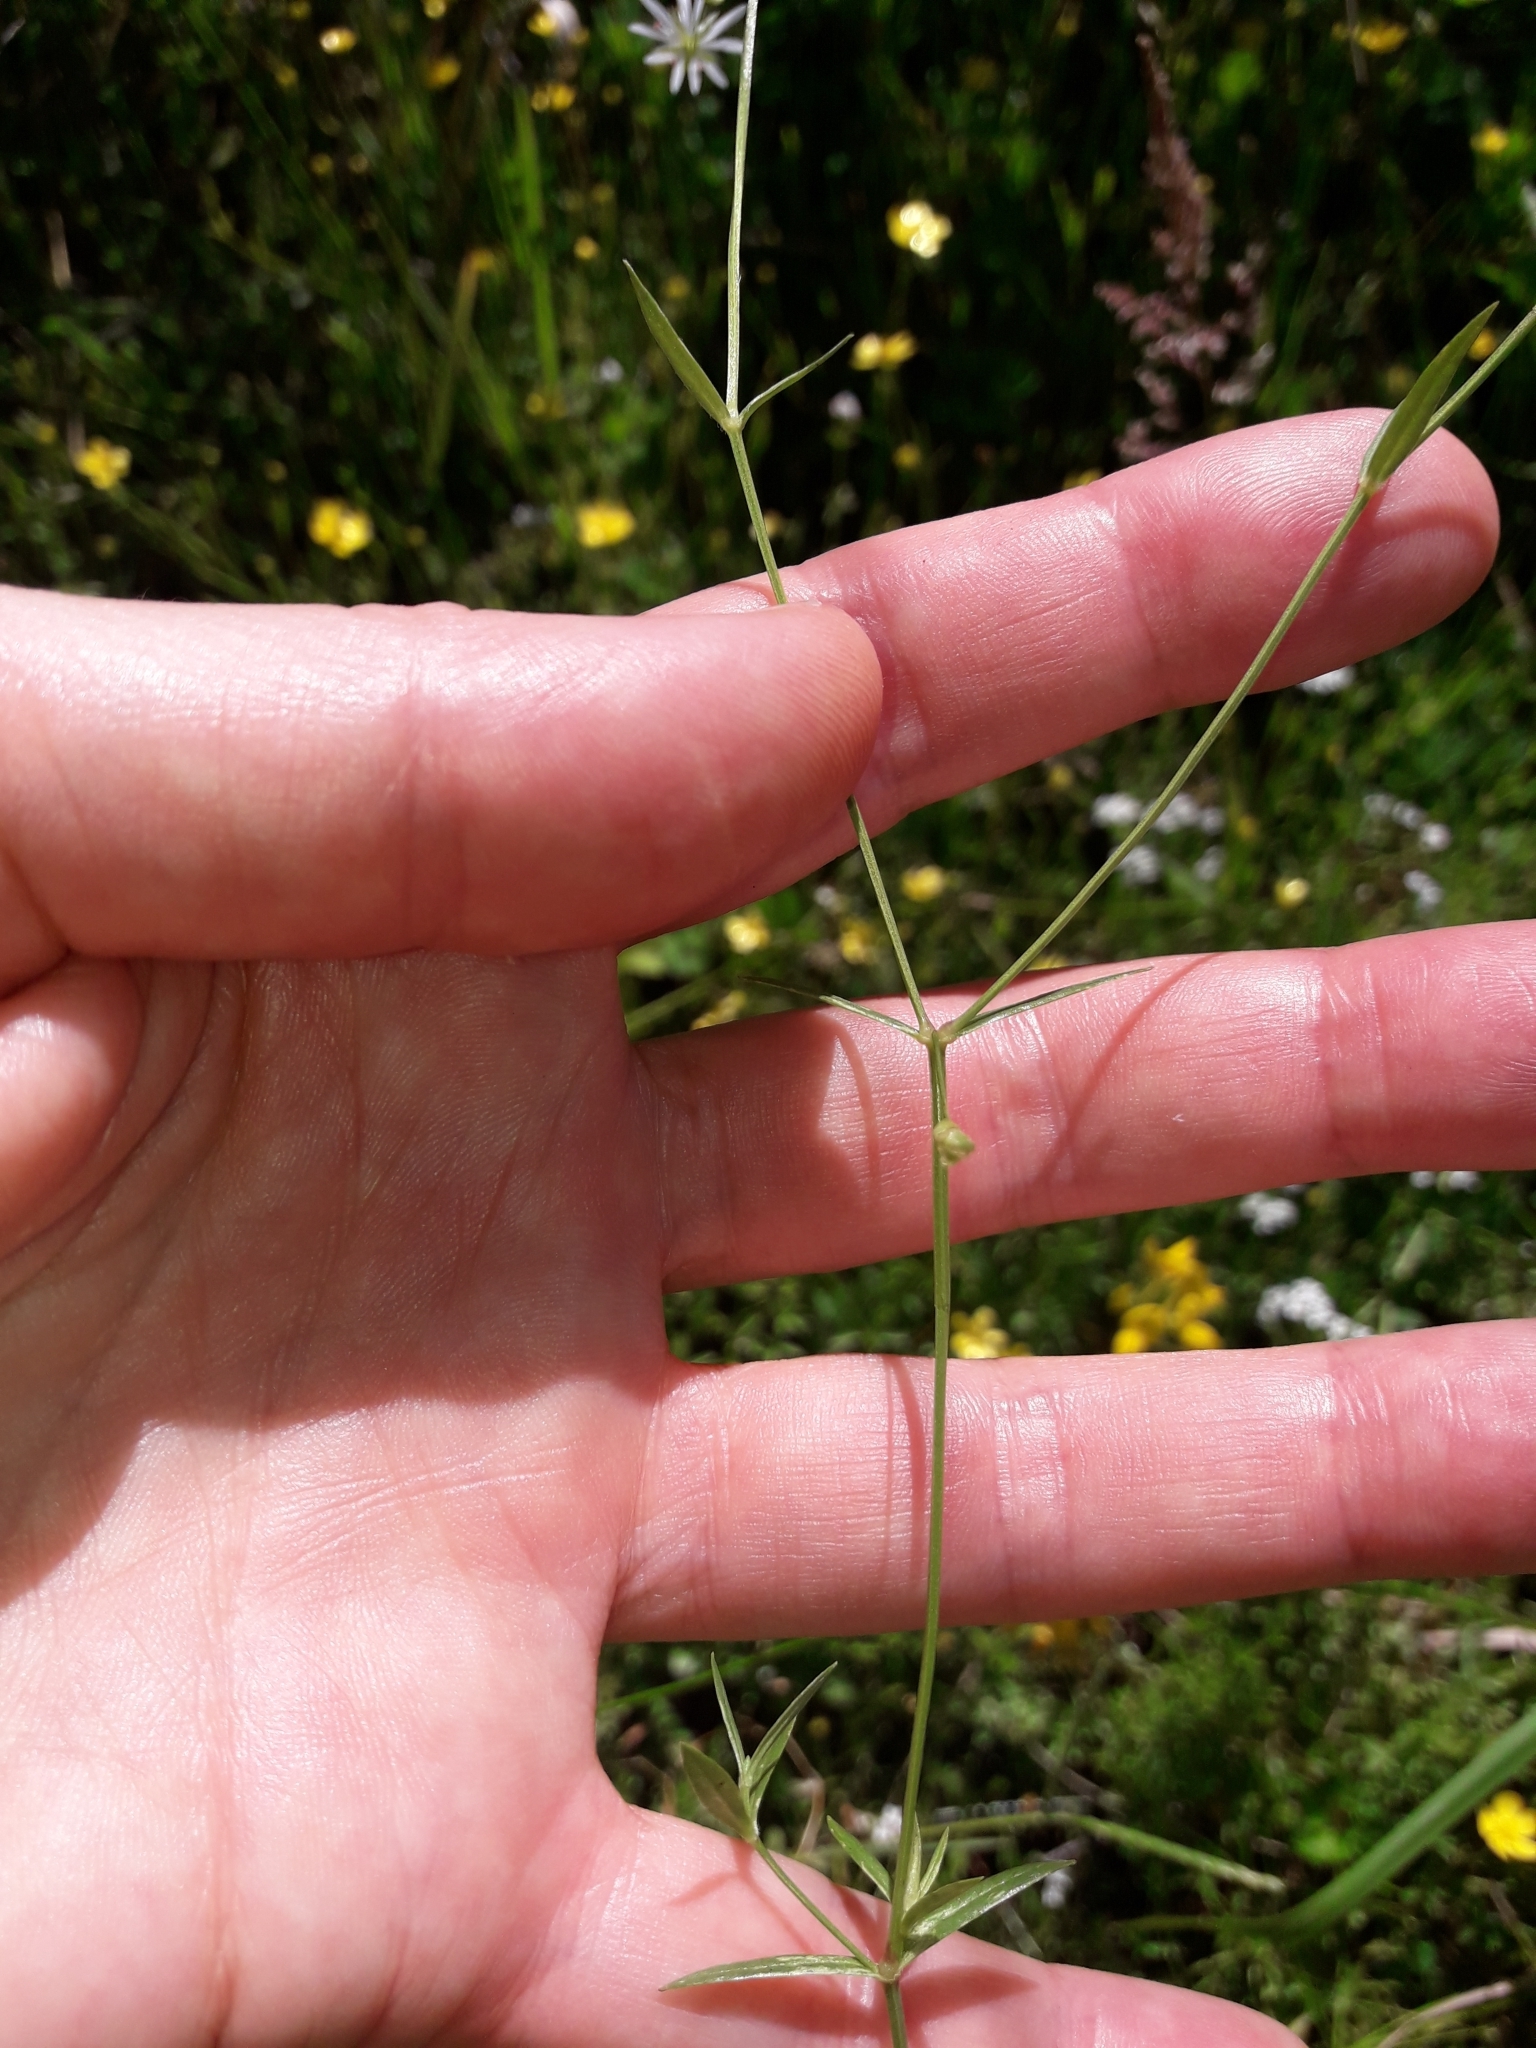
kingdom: Plantae
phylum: Tracheophyta
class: Magnoliopsida
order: Caryophyllales
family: Caryophyllaceae
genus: Stellaria
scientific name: Stellaria graminea
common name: Grass-like starwort
